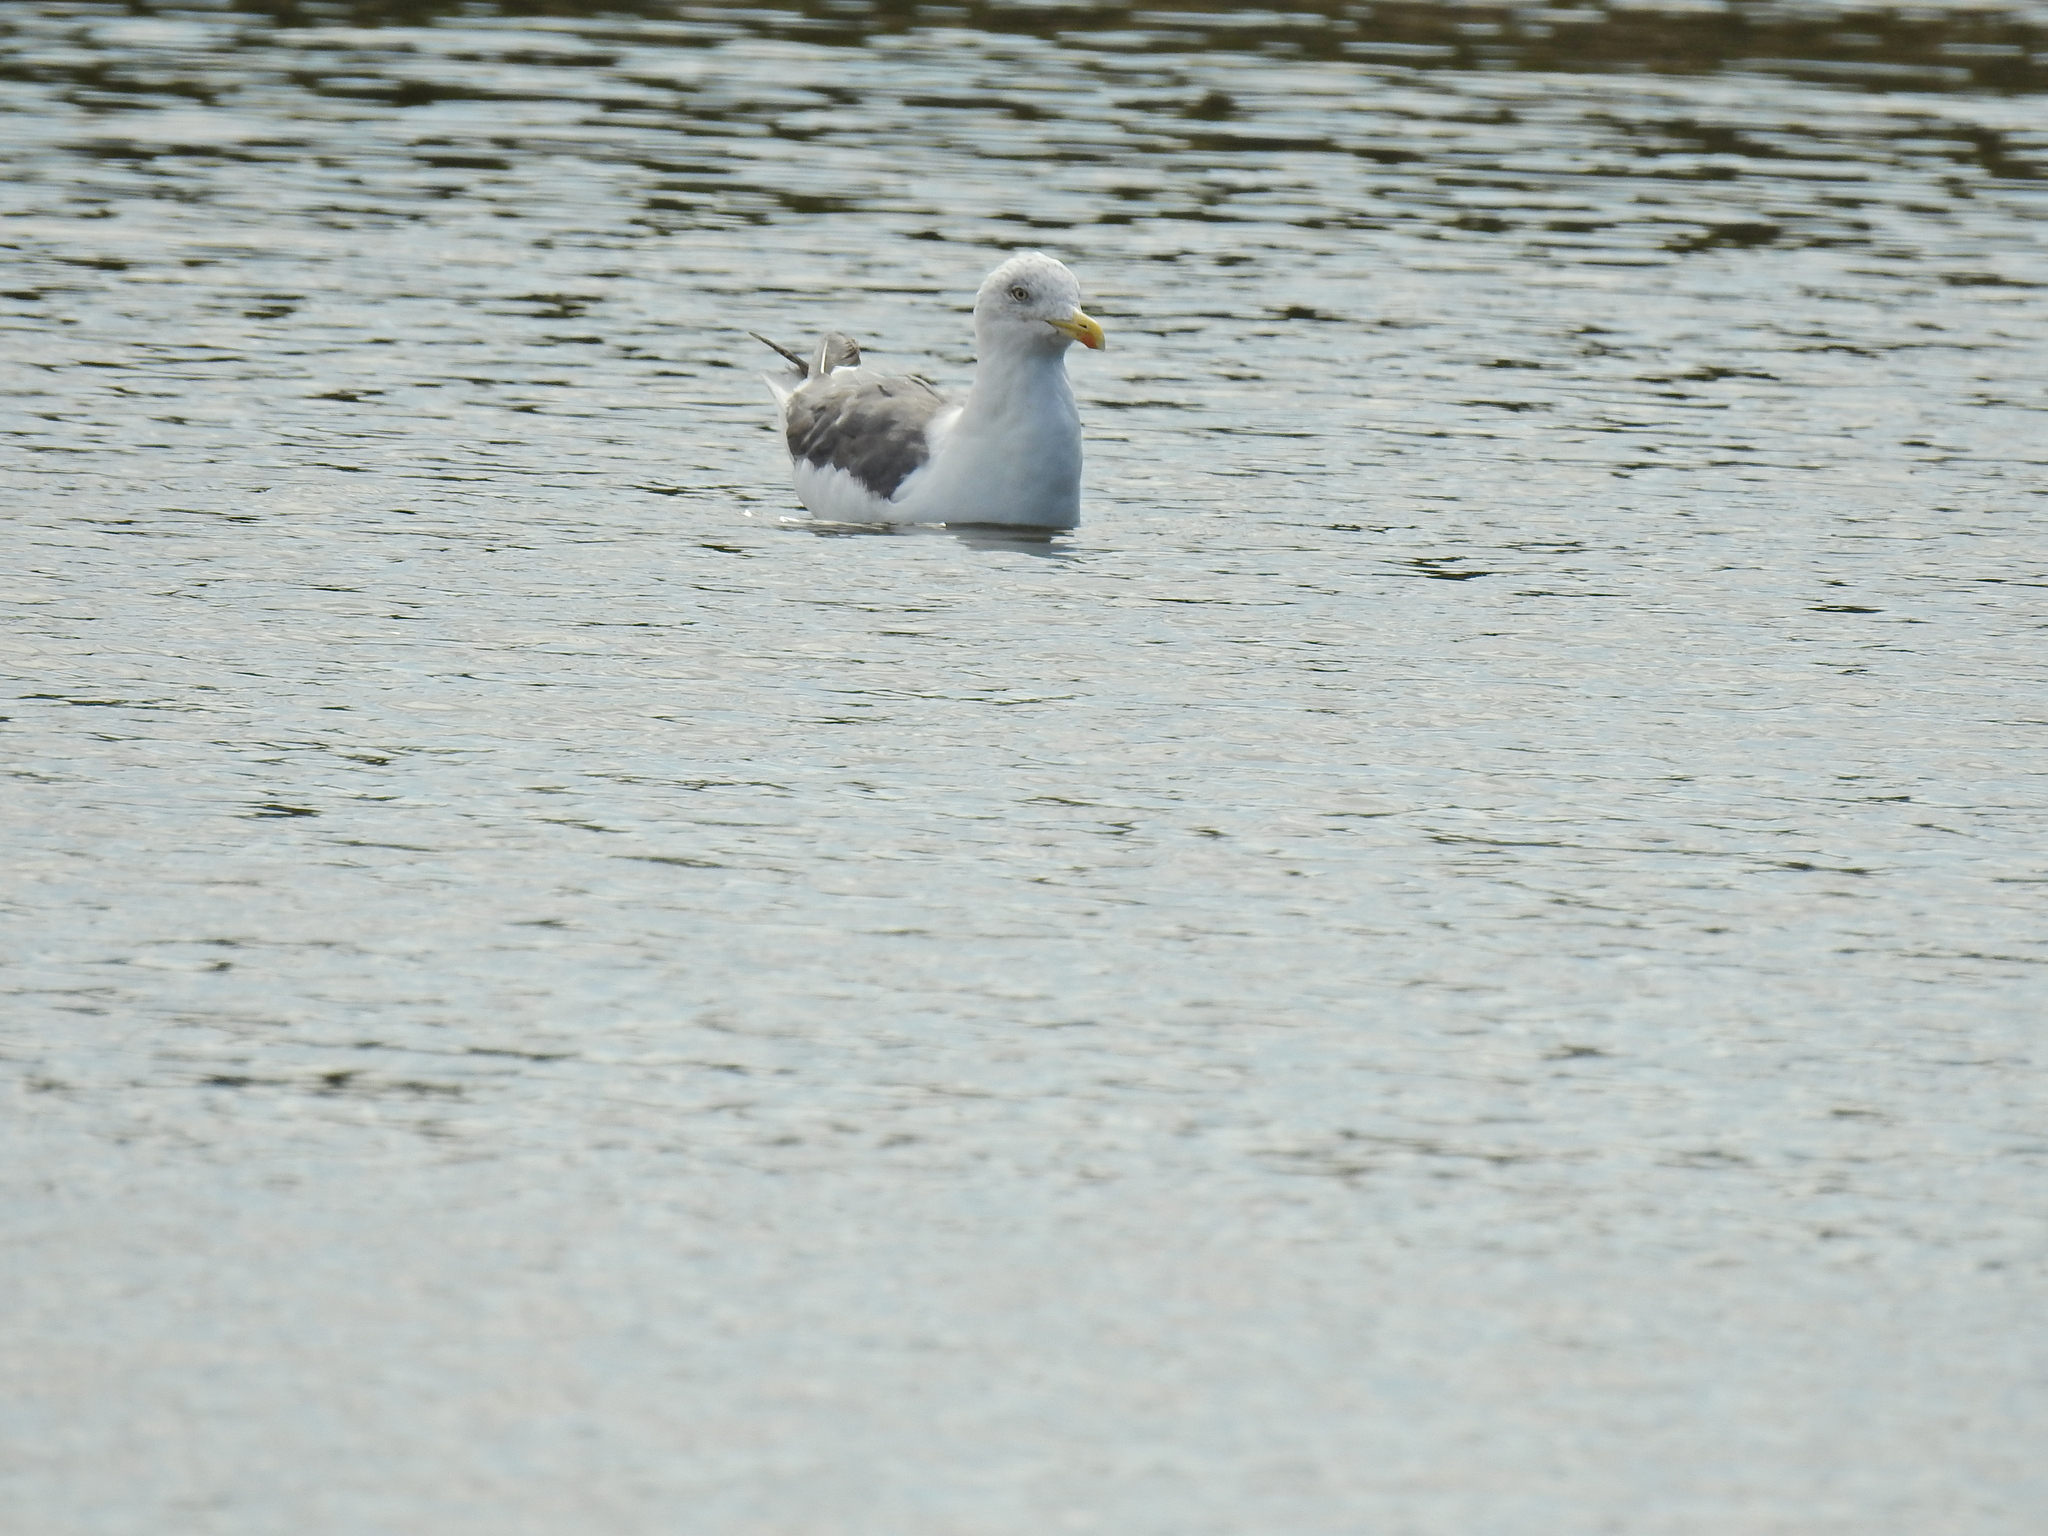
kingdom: Animalia
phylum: Chordata
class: Aves
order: Charadriiformes
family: Laridae
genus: Larus
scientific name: Larus argentatus
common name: Herring gull
